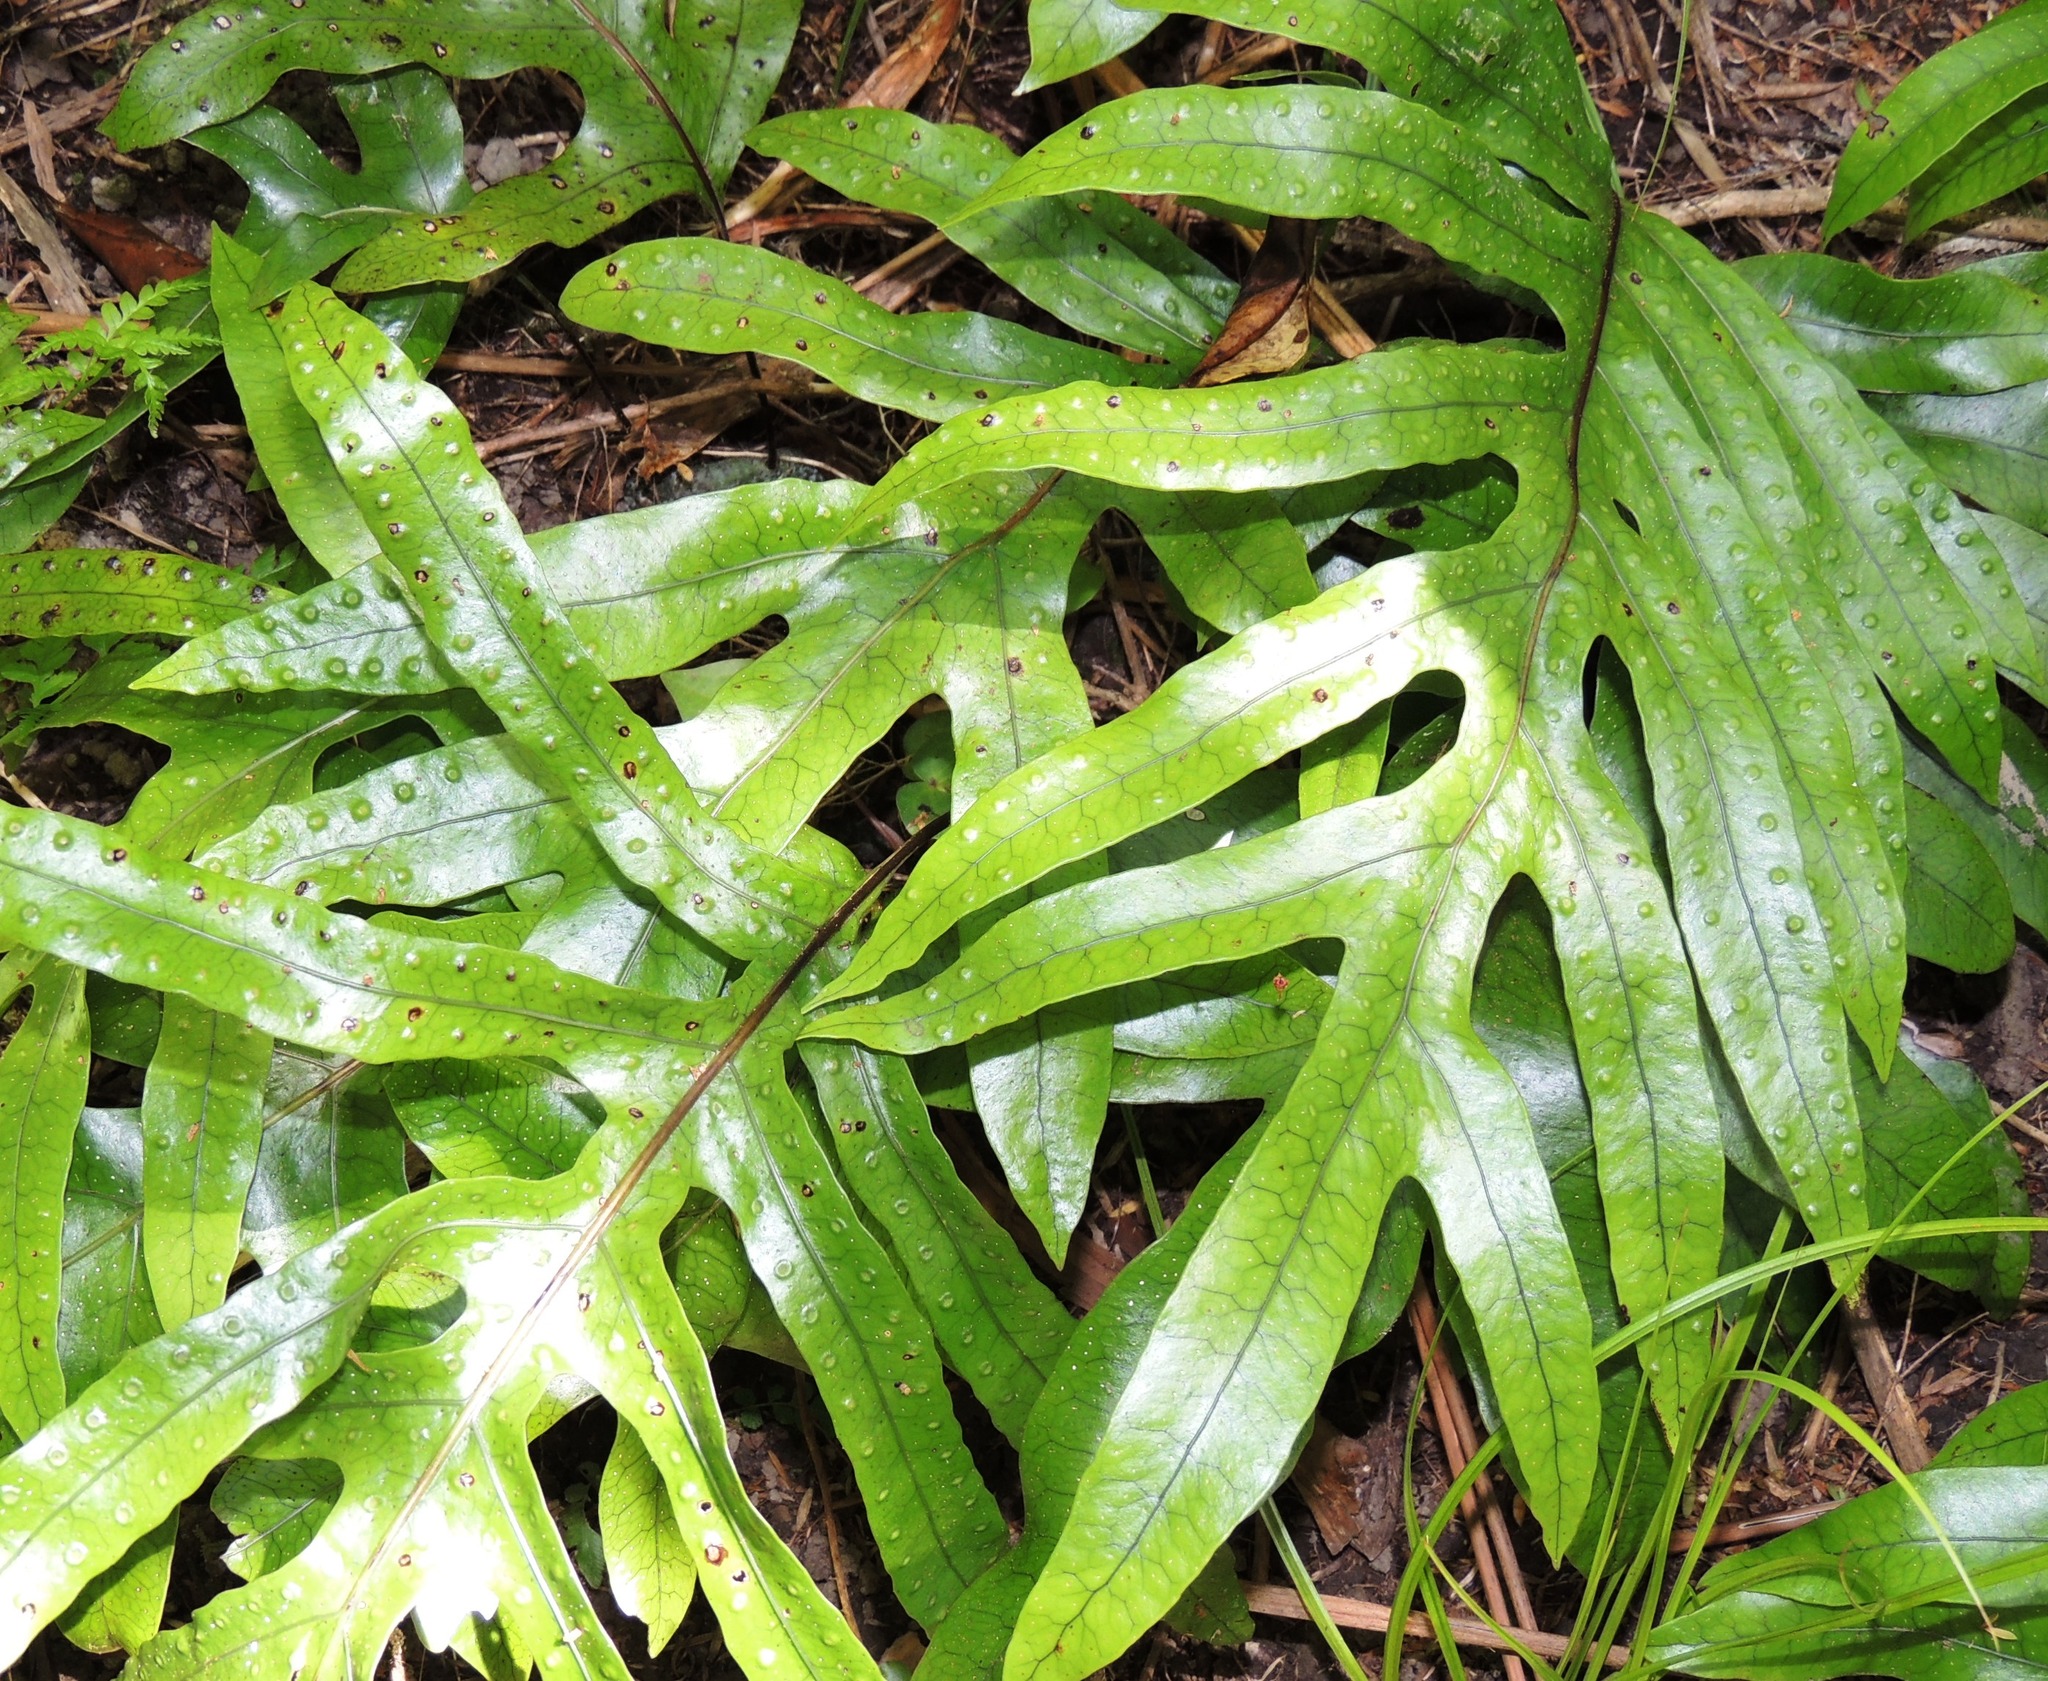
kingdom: Plantae
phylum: Tracheophyta
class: Polypodiopsida
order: Polypodiales
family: Polypodiaceae
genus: Lecanopteris
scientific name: Lecanopteris pustulata
